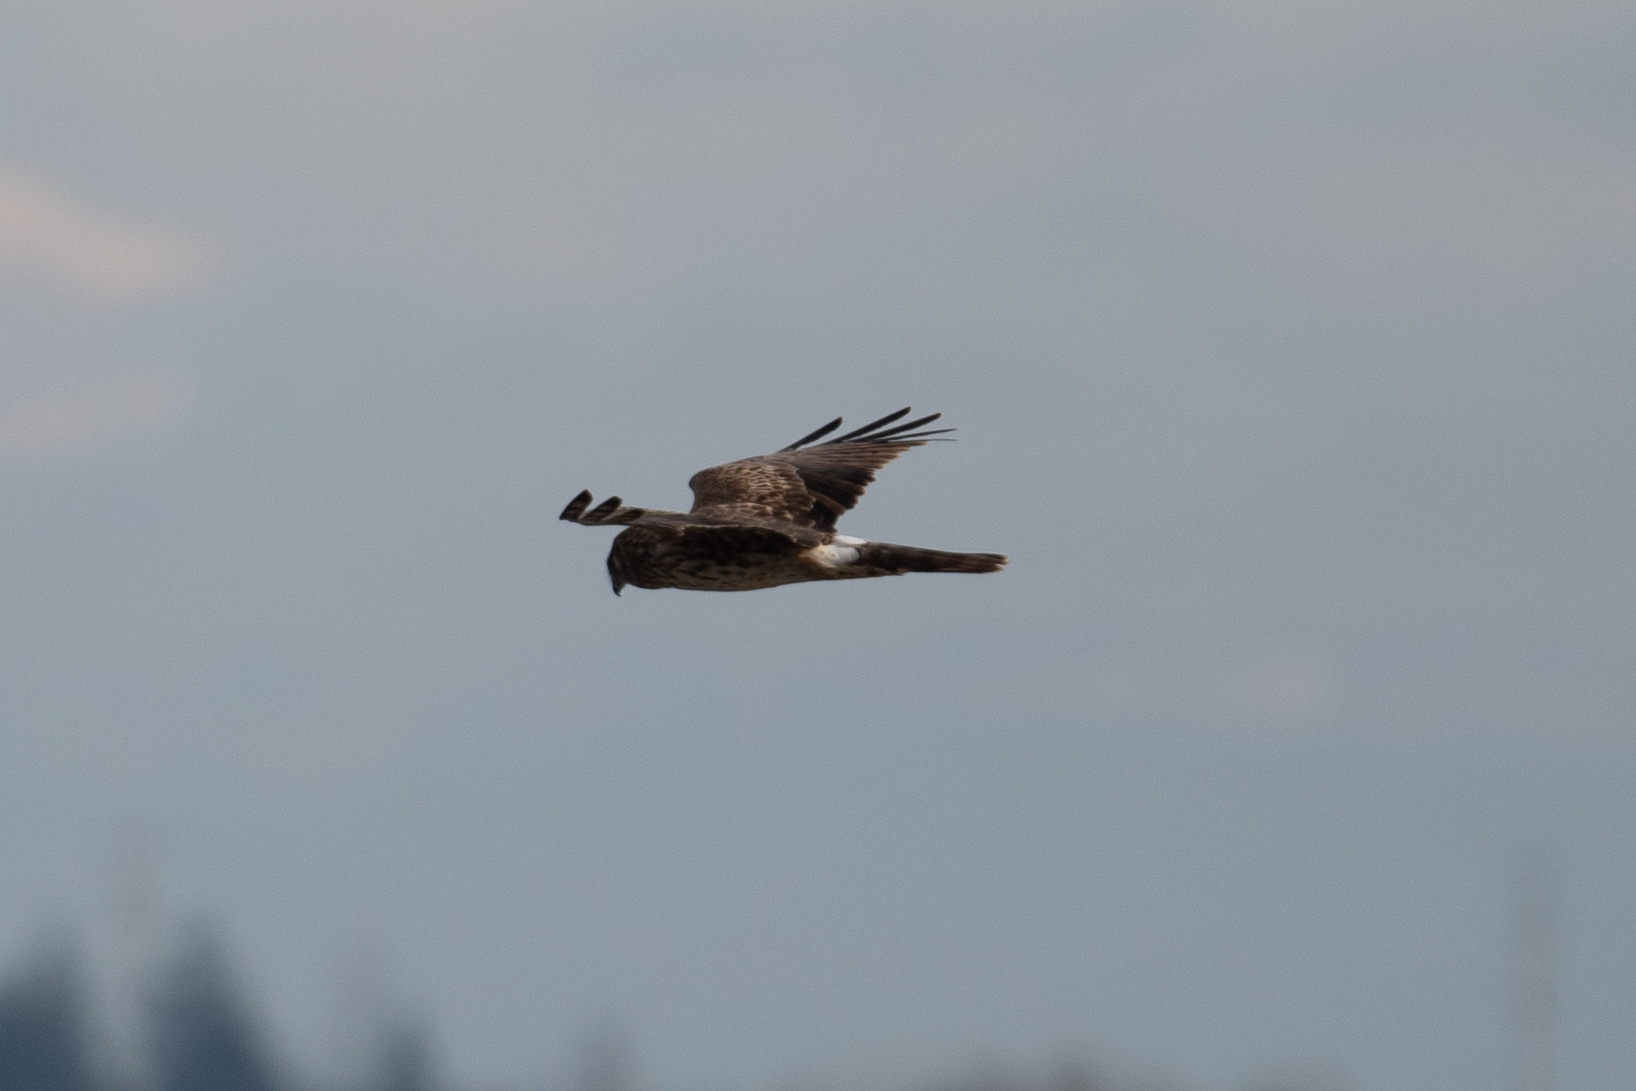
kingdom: Animalia
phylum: Chordata
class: Aves
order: Accipitriformes
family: Accipitridae
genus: Circus
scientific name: Circus cyaneus
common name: Hen harrier
